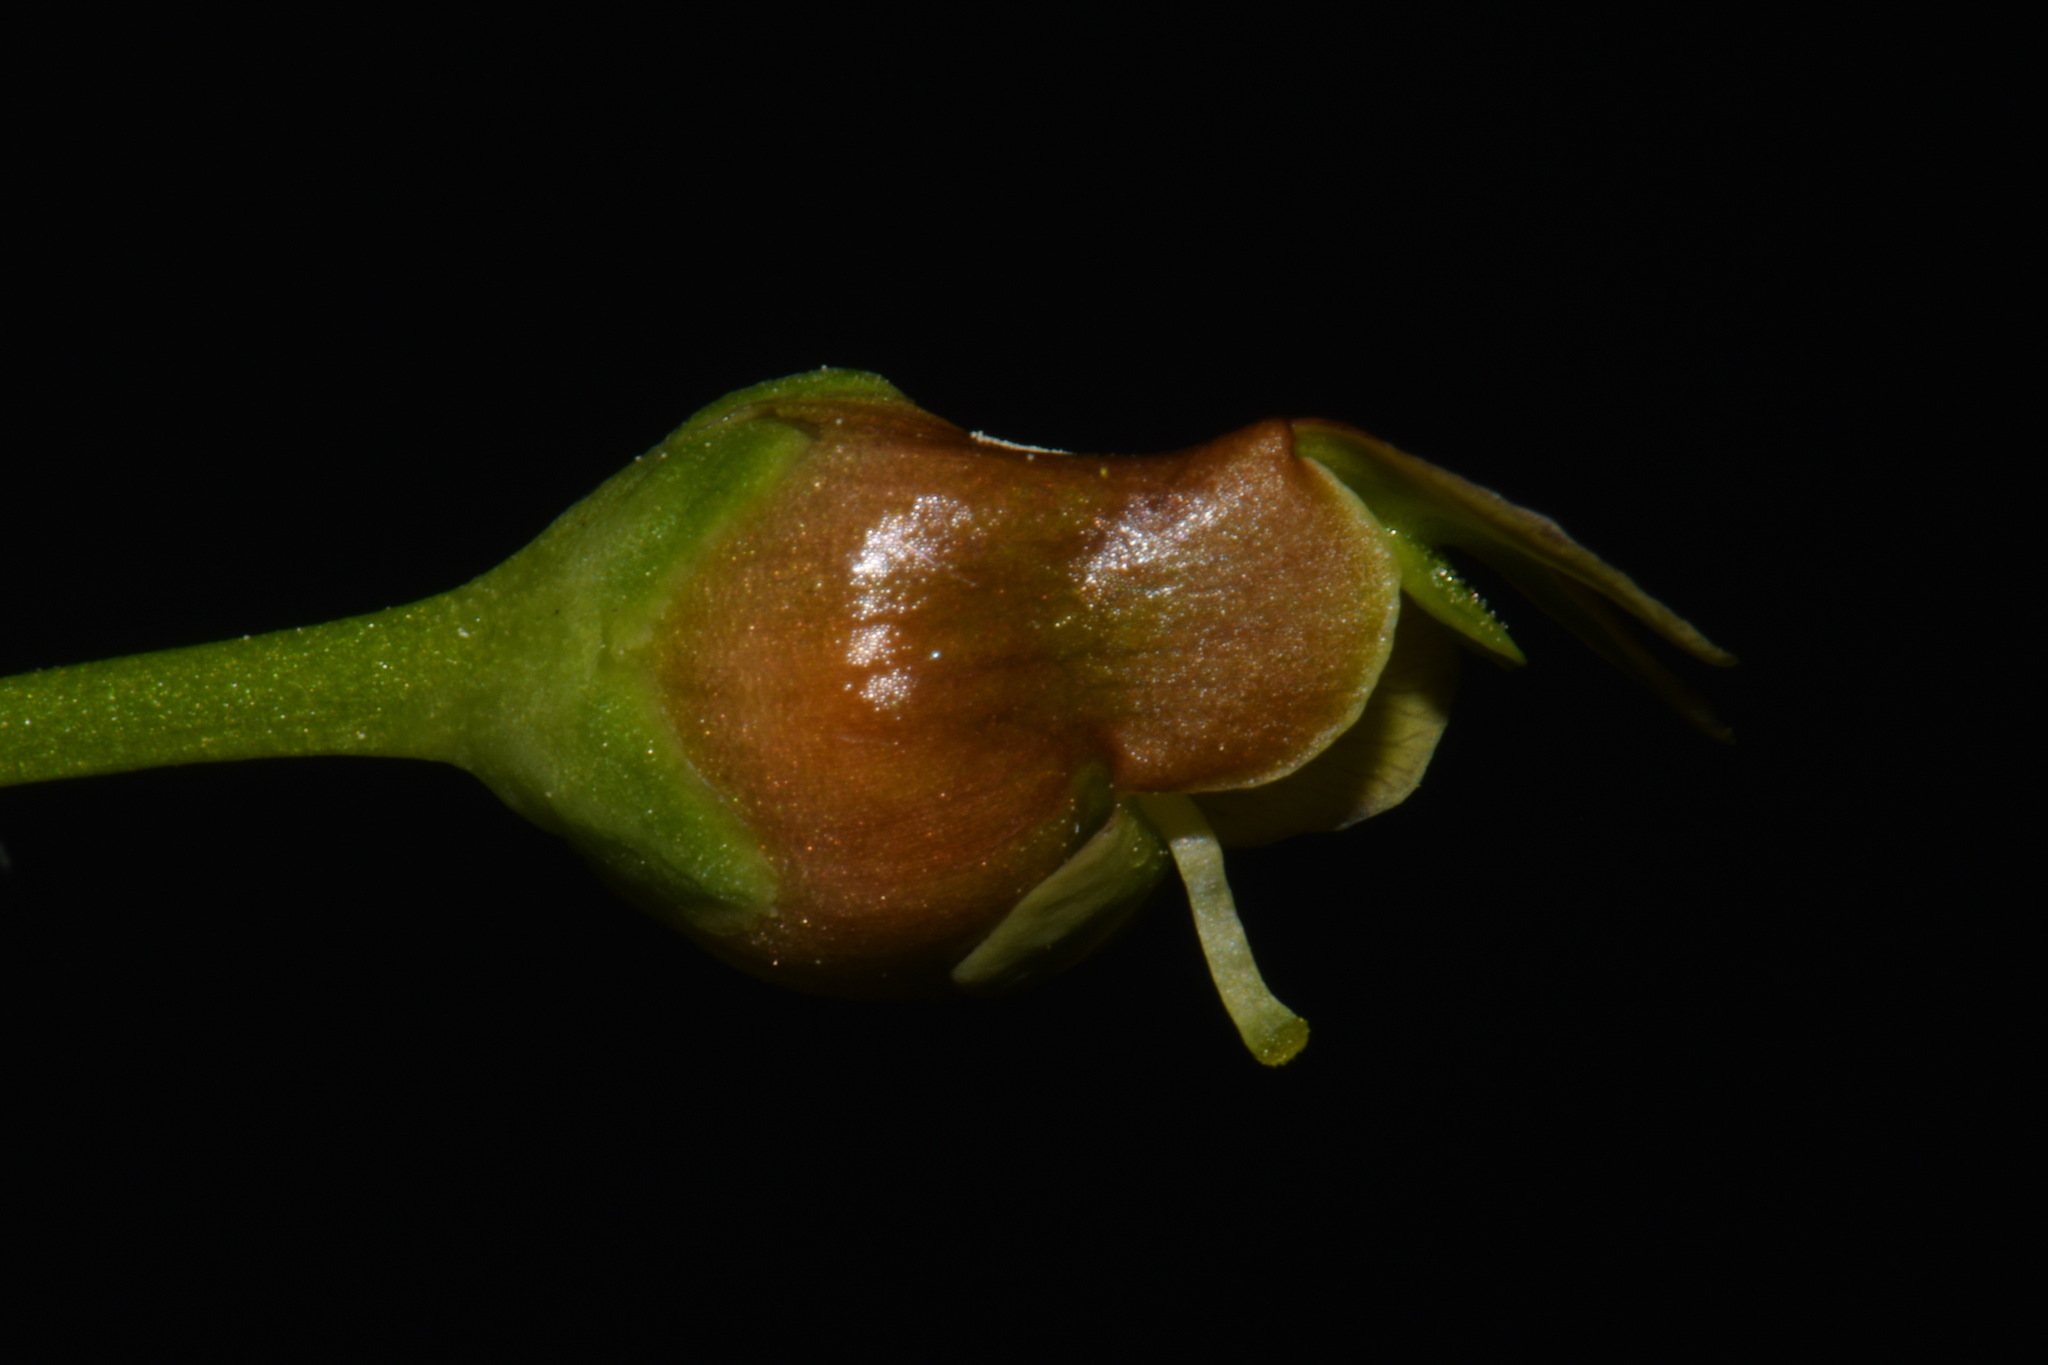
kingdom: Plantae
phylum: Tracheophyta
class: Magnoliopsida
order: Lamiales
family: Scrophulariaceae
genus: Scrophularia
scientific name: Scrophularia lanceolata
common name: American figwort
